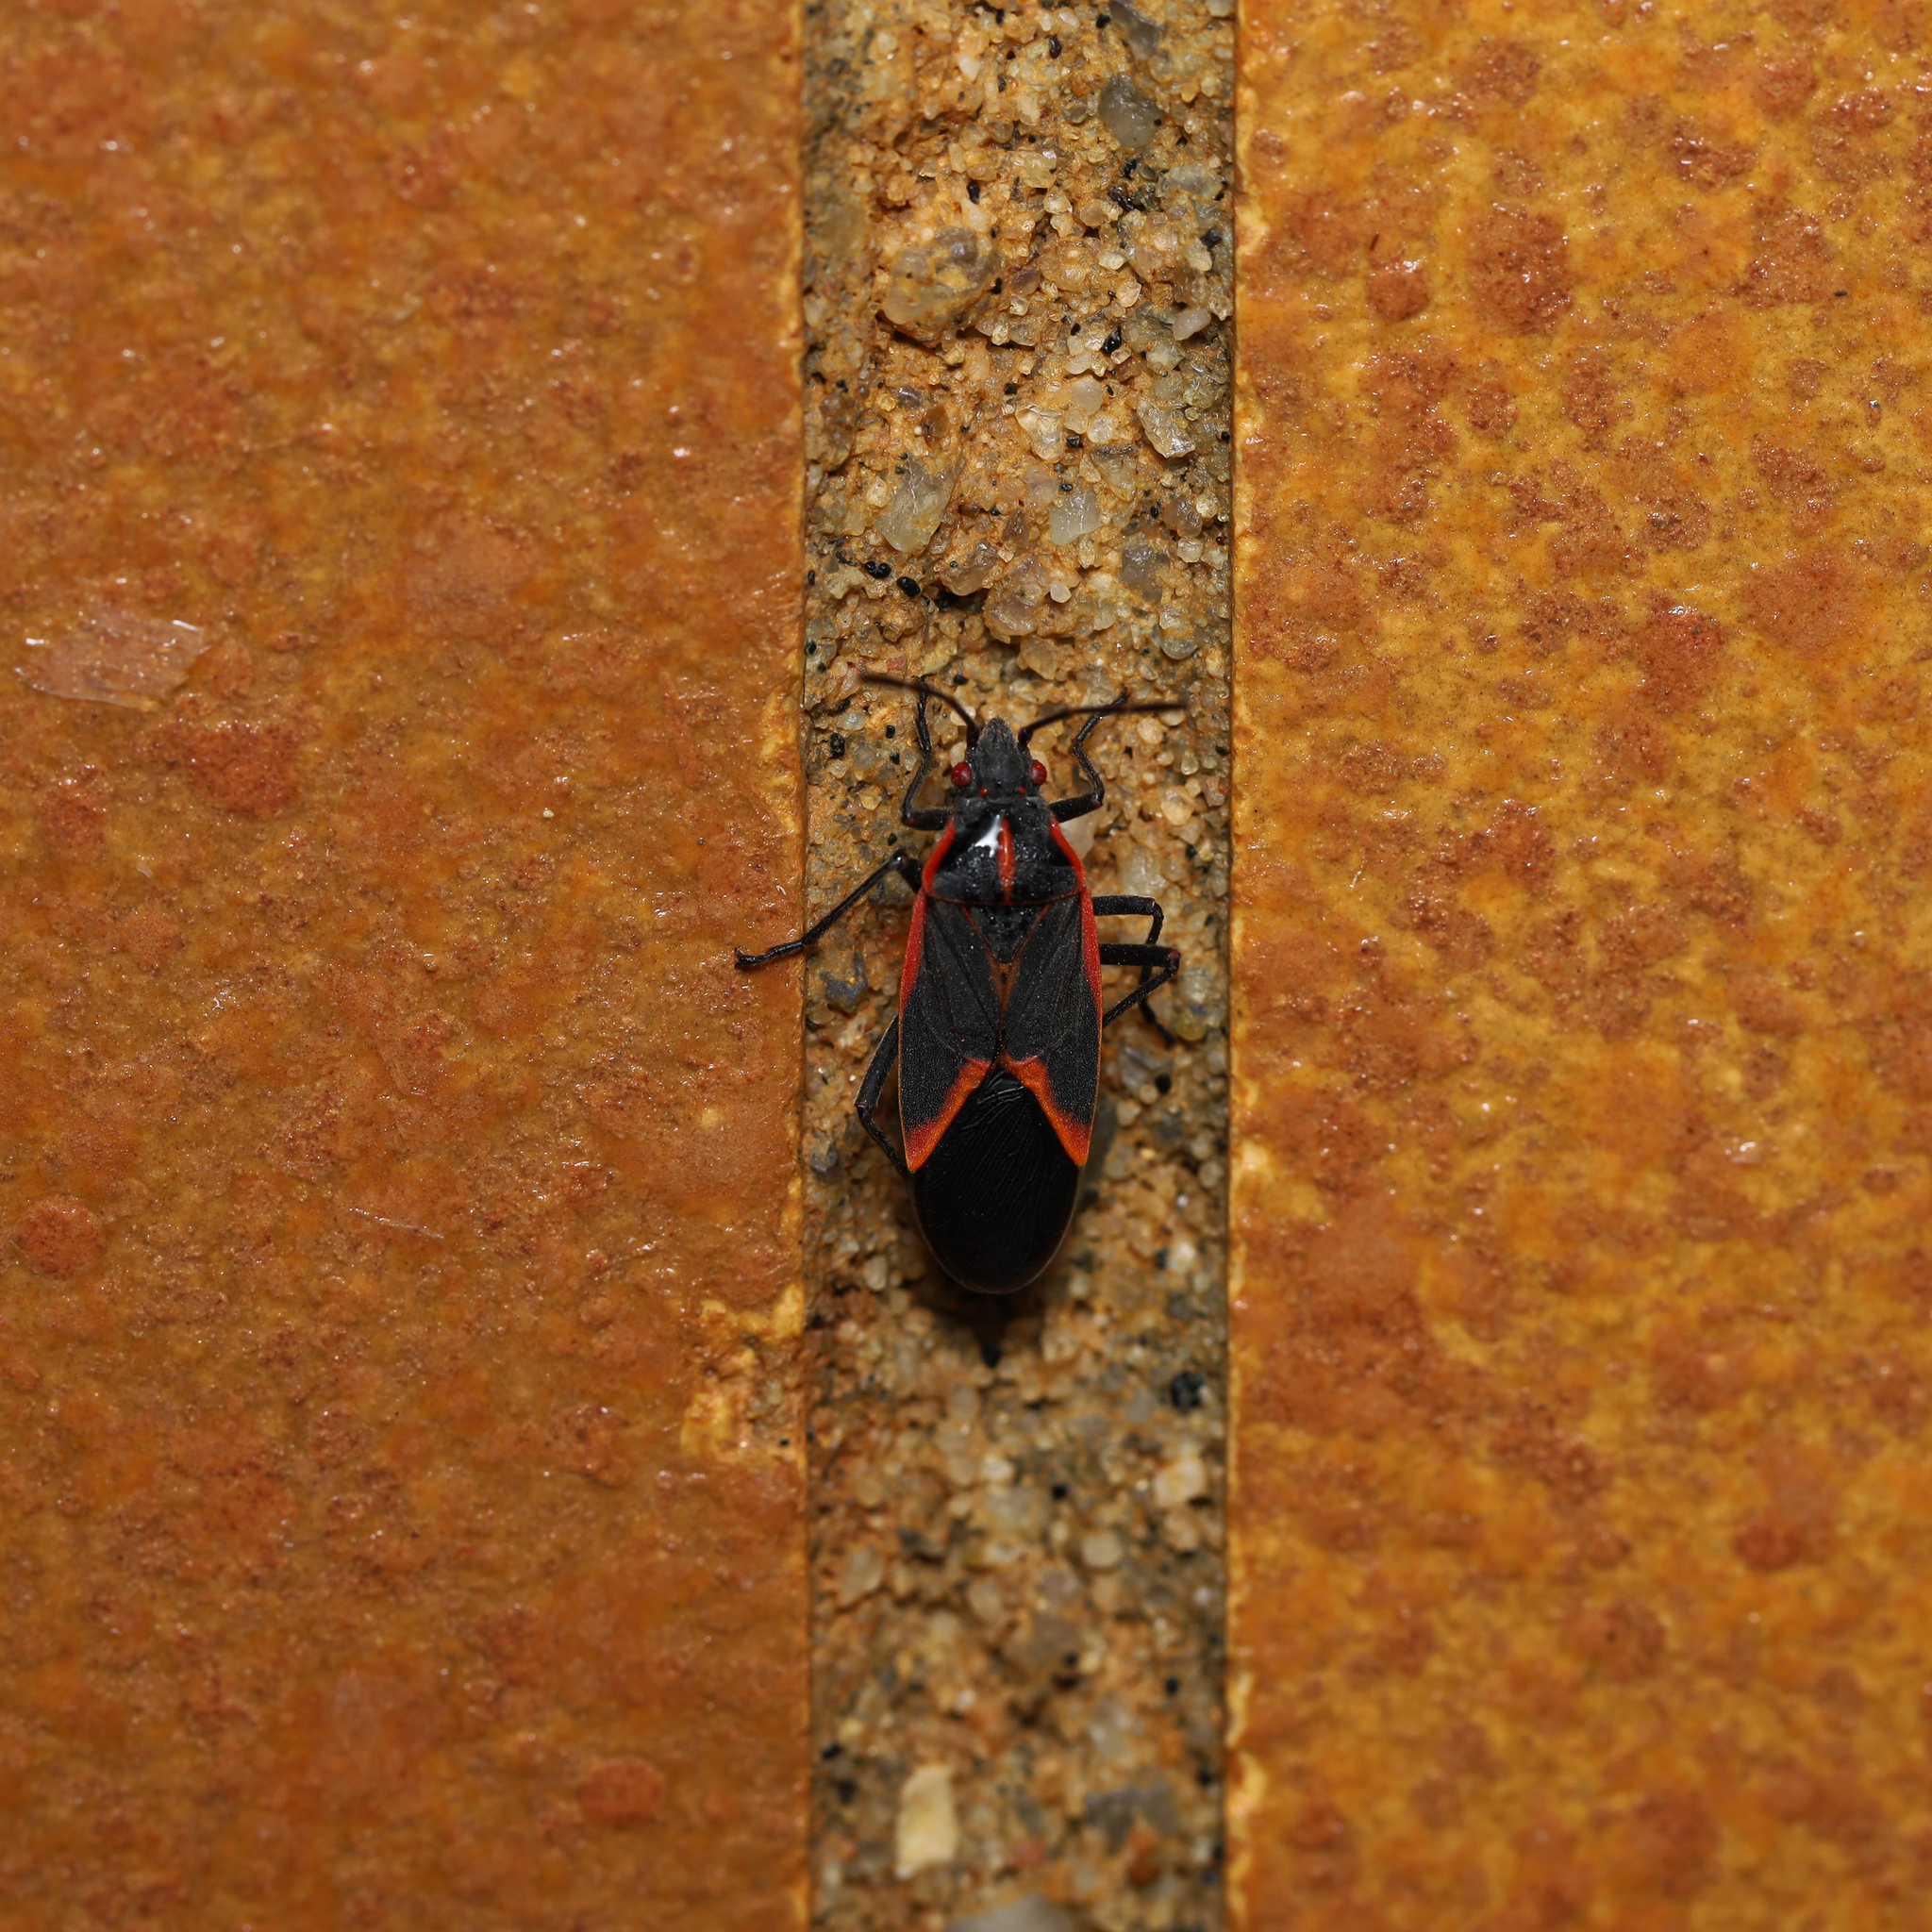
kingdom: Animalia
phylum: Arthropoda
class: Insecta
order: Hemiptera
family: Rhopalidae
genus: Boisea
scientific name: Boisea trivittata
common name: Boxelder bug
